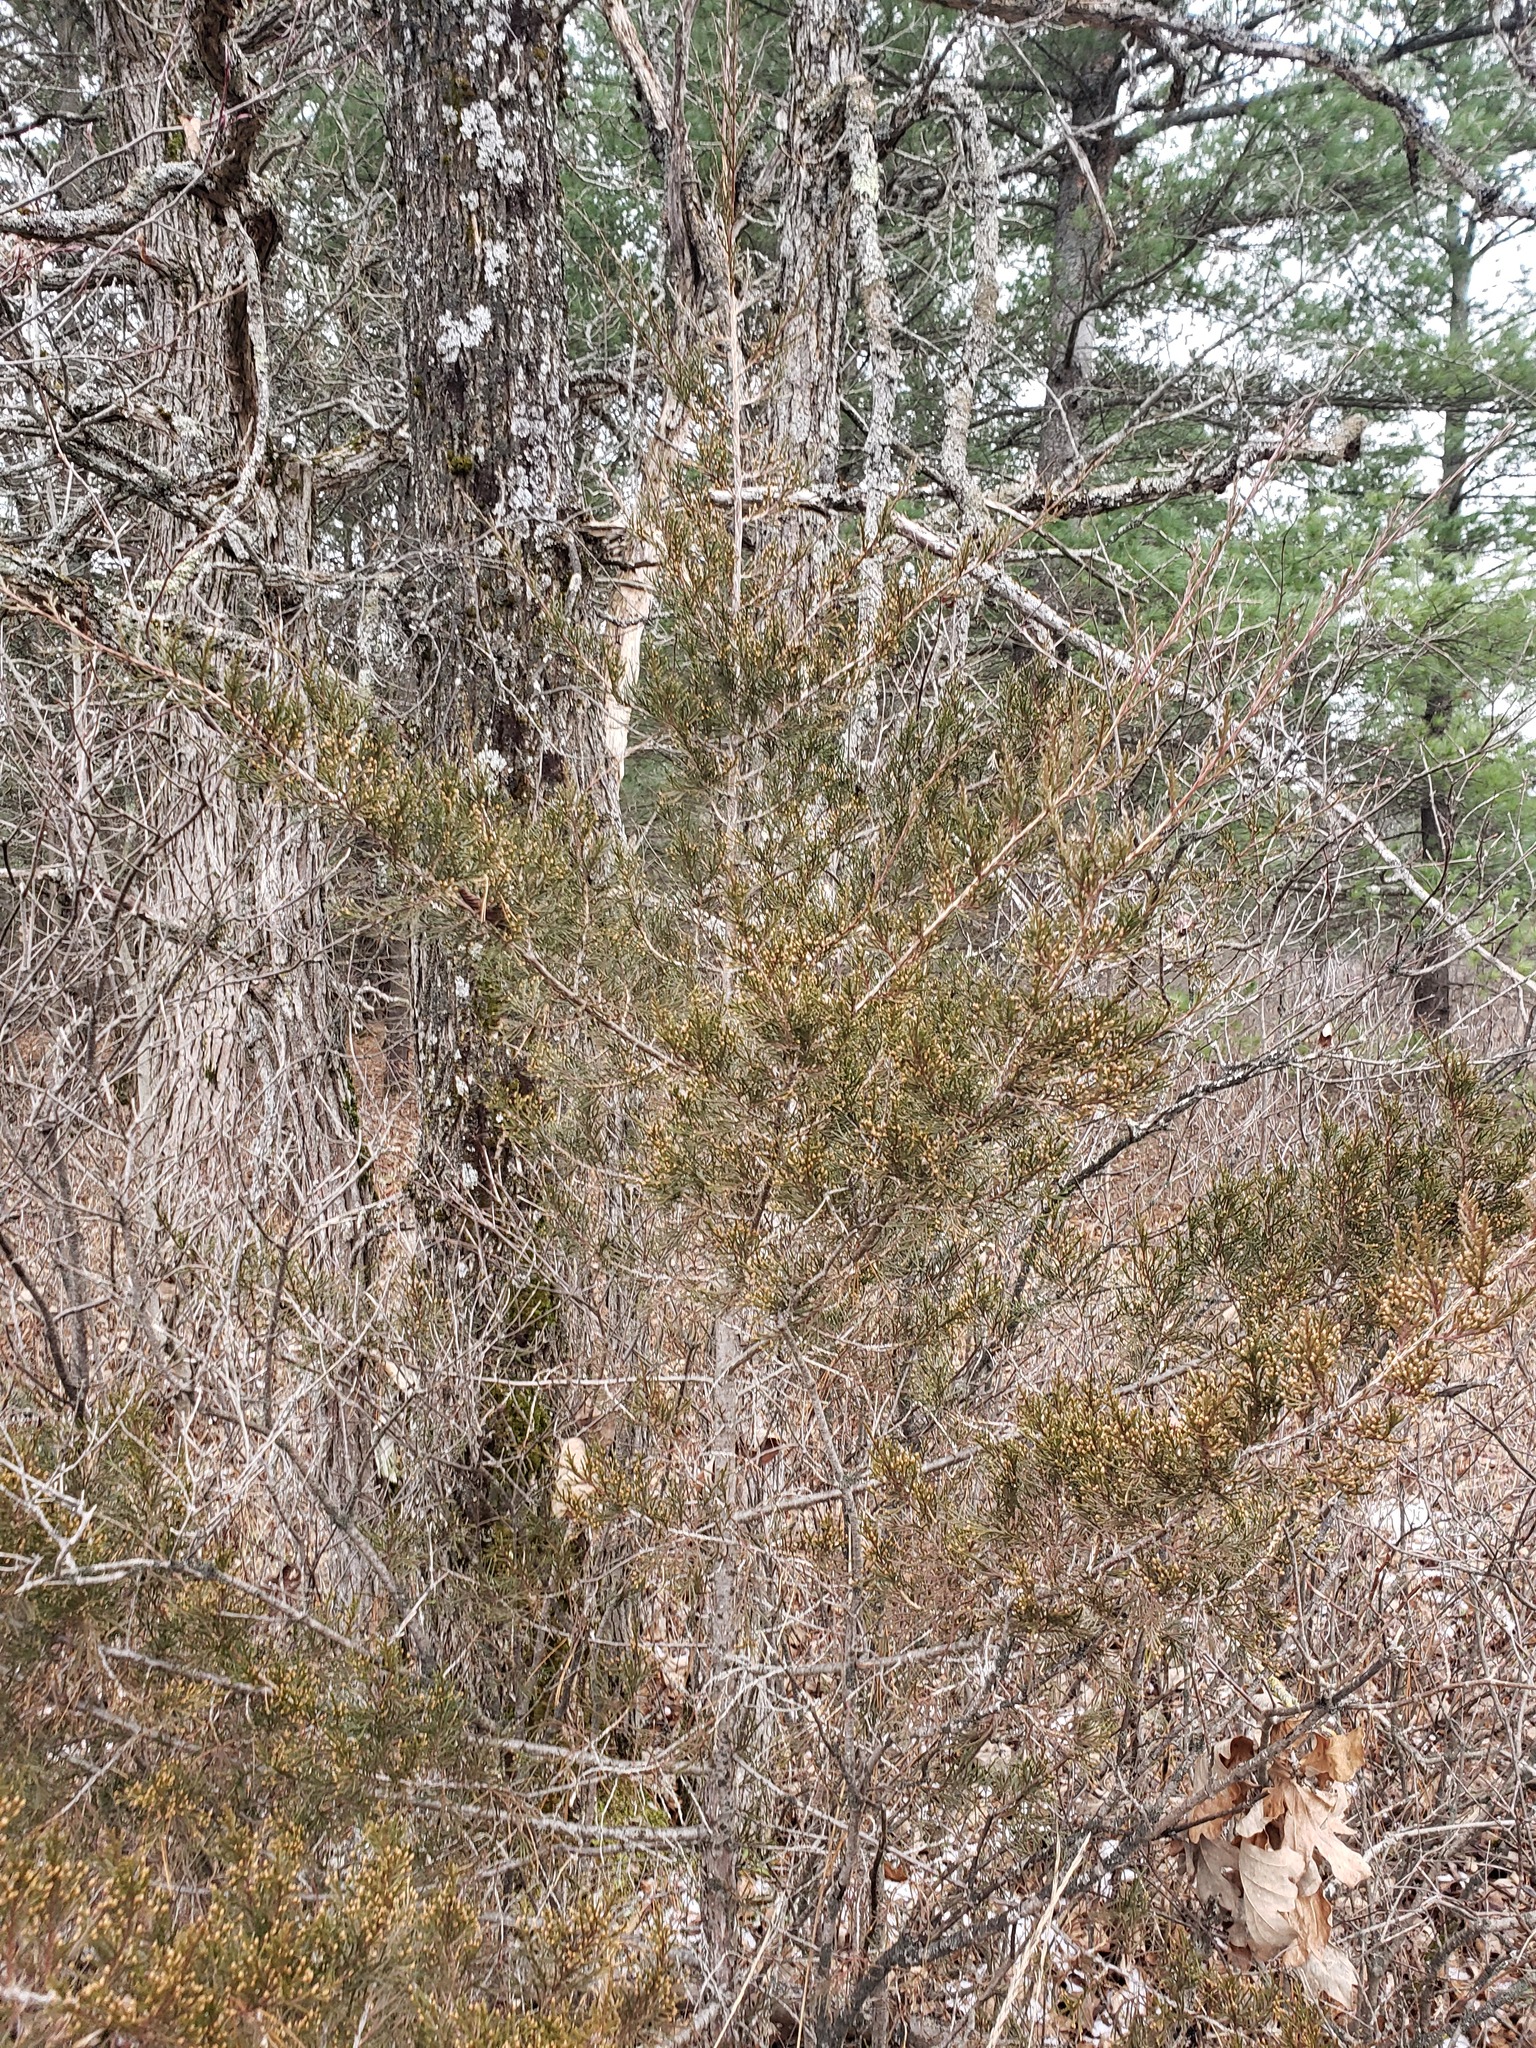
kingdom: Plantae
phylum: Tracheophyta
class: Pinopsida
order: Pinales
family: Cupressaceae
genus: Juniperus
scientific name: Juniperus virginiana
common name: Red juniper
